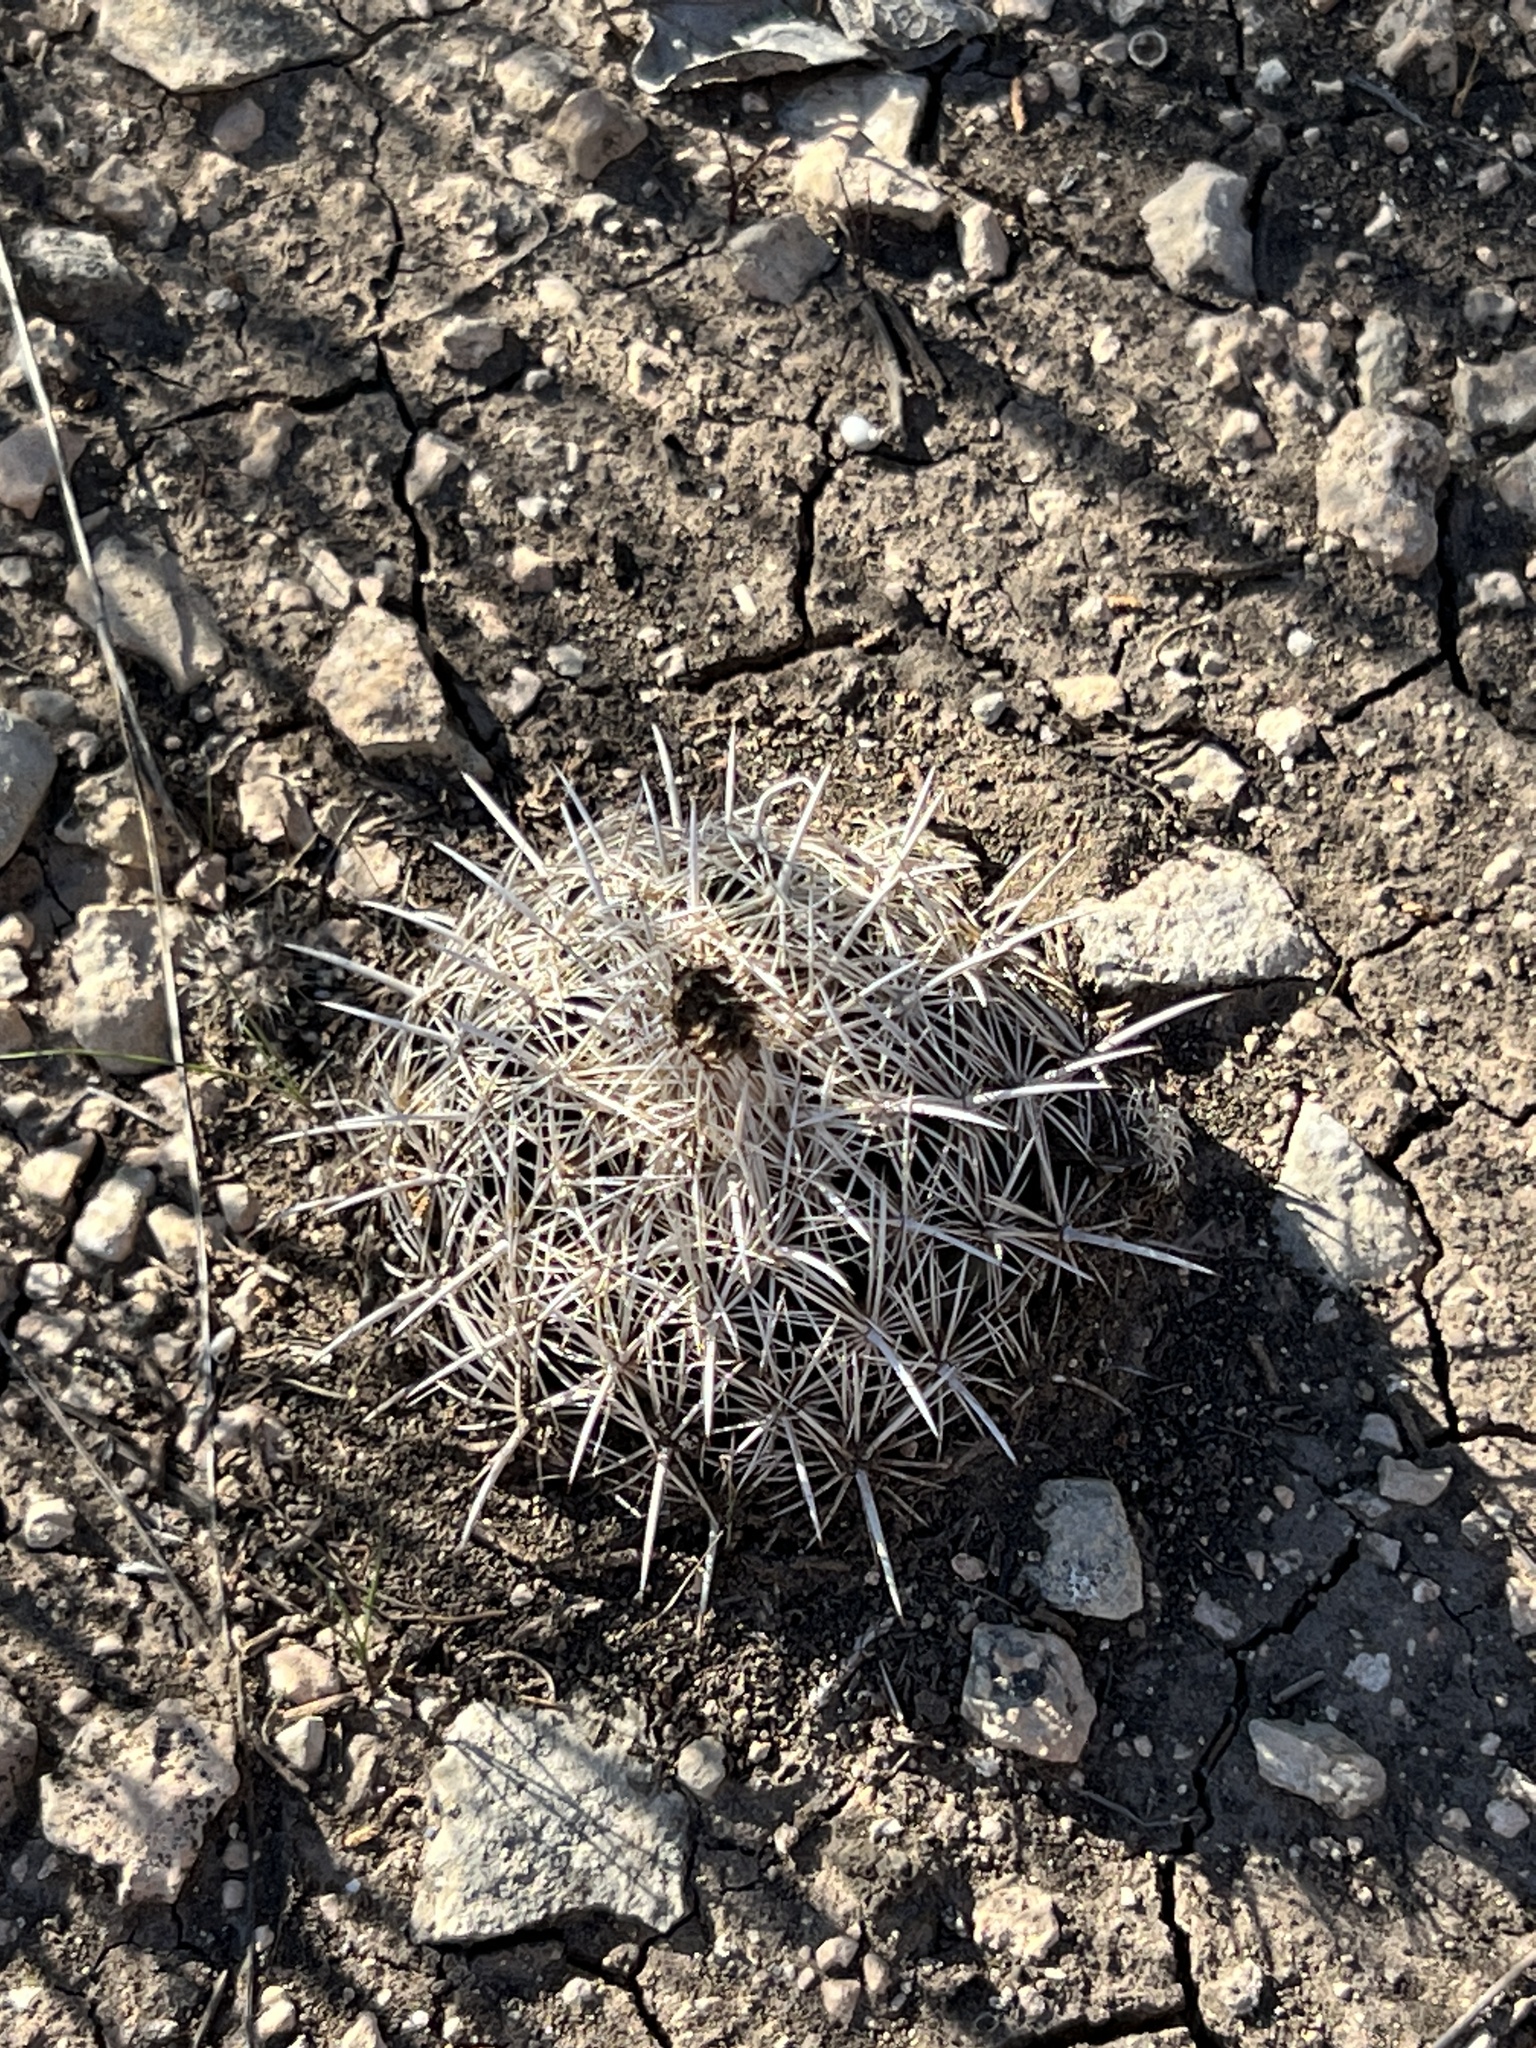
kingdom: Plantae
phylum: Tracheophyta
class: Magnoliopsida
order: Caryophyllales
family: Cactaceae
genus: Coryphantha
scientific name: Coryphantha echinus
